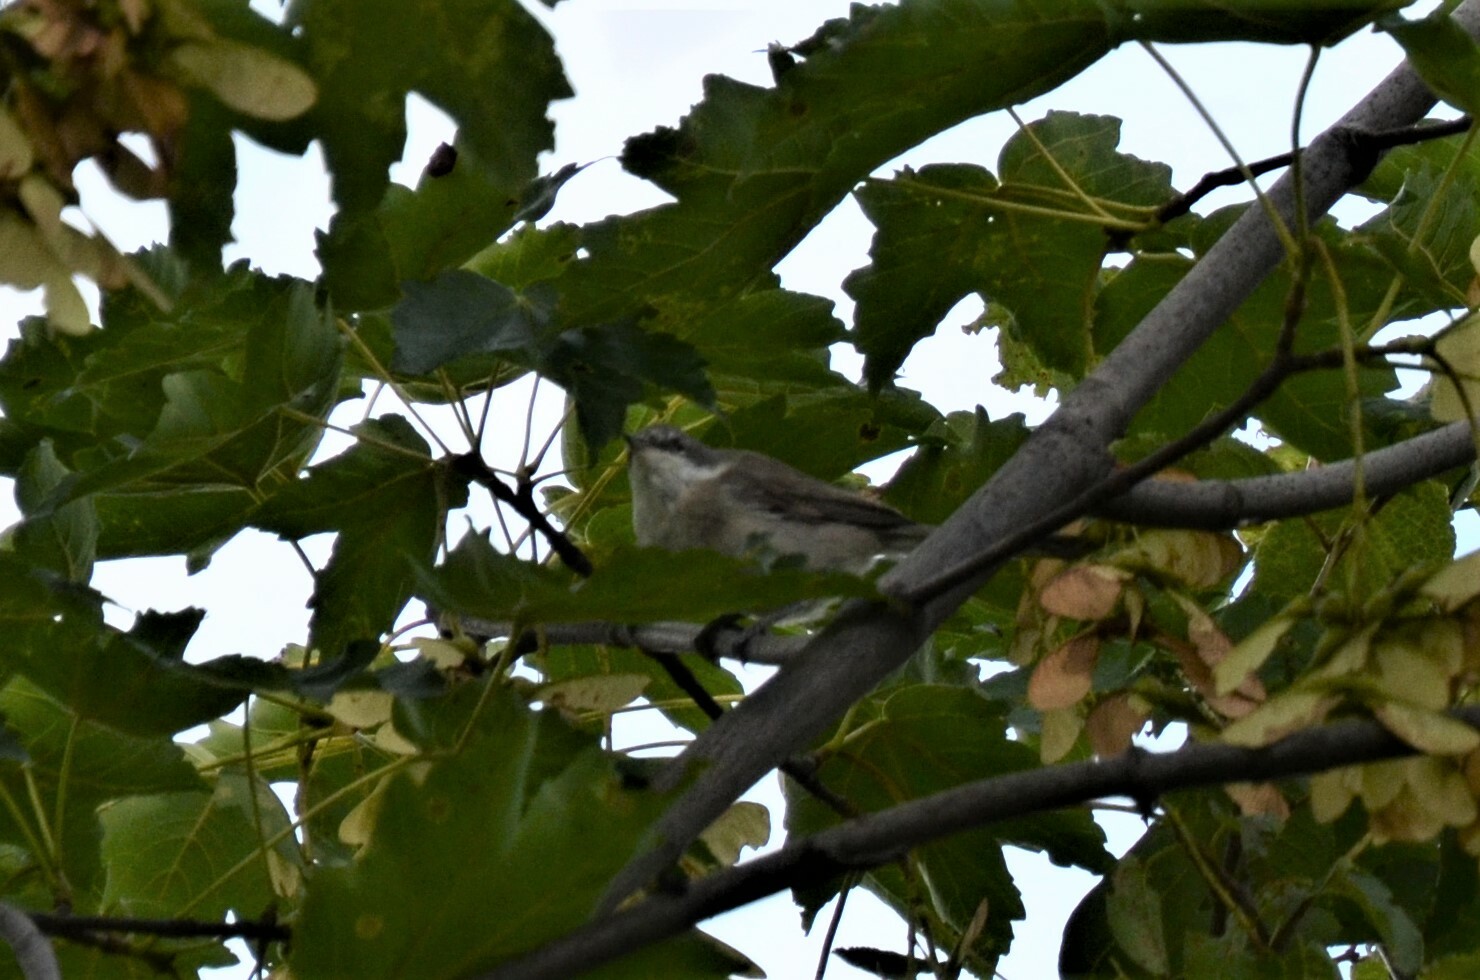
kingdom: Animalia
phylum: Chordata
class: Aves
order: Passeriformes
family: Sylviidae
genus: Sylvia
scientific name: Sylvia curruca
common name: Lesser whitethroat
